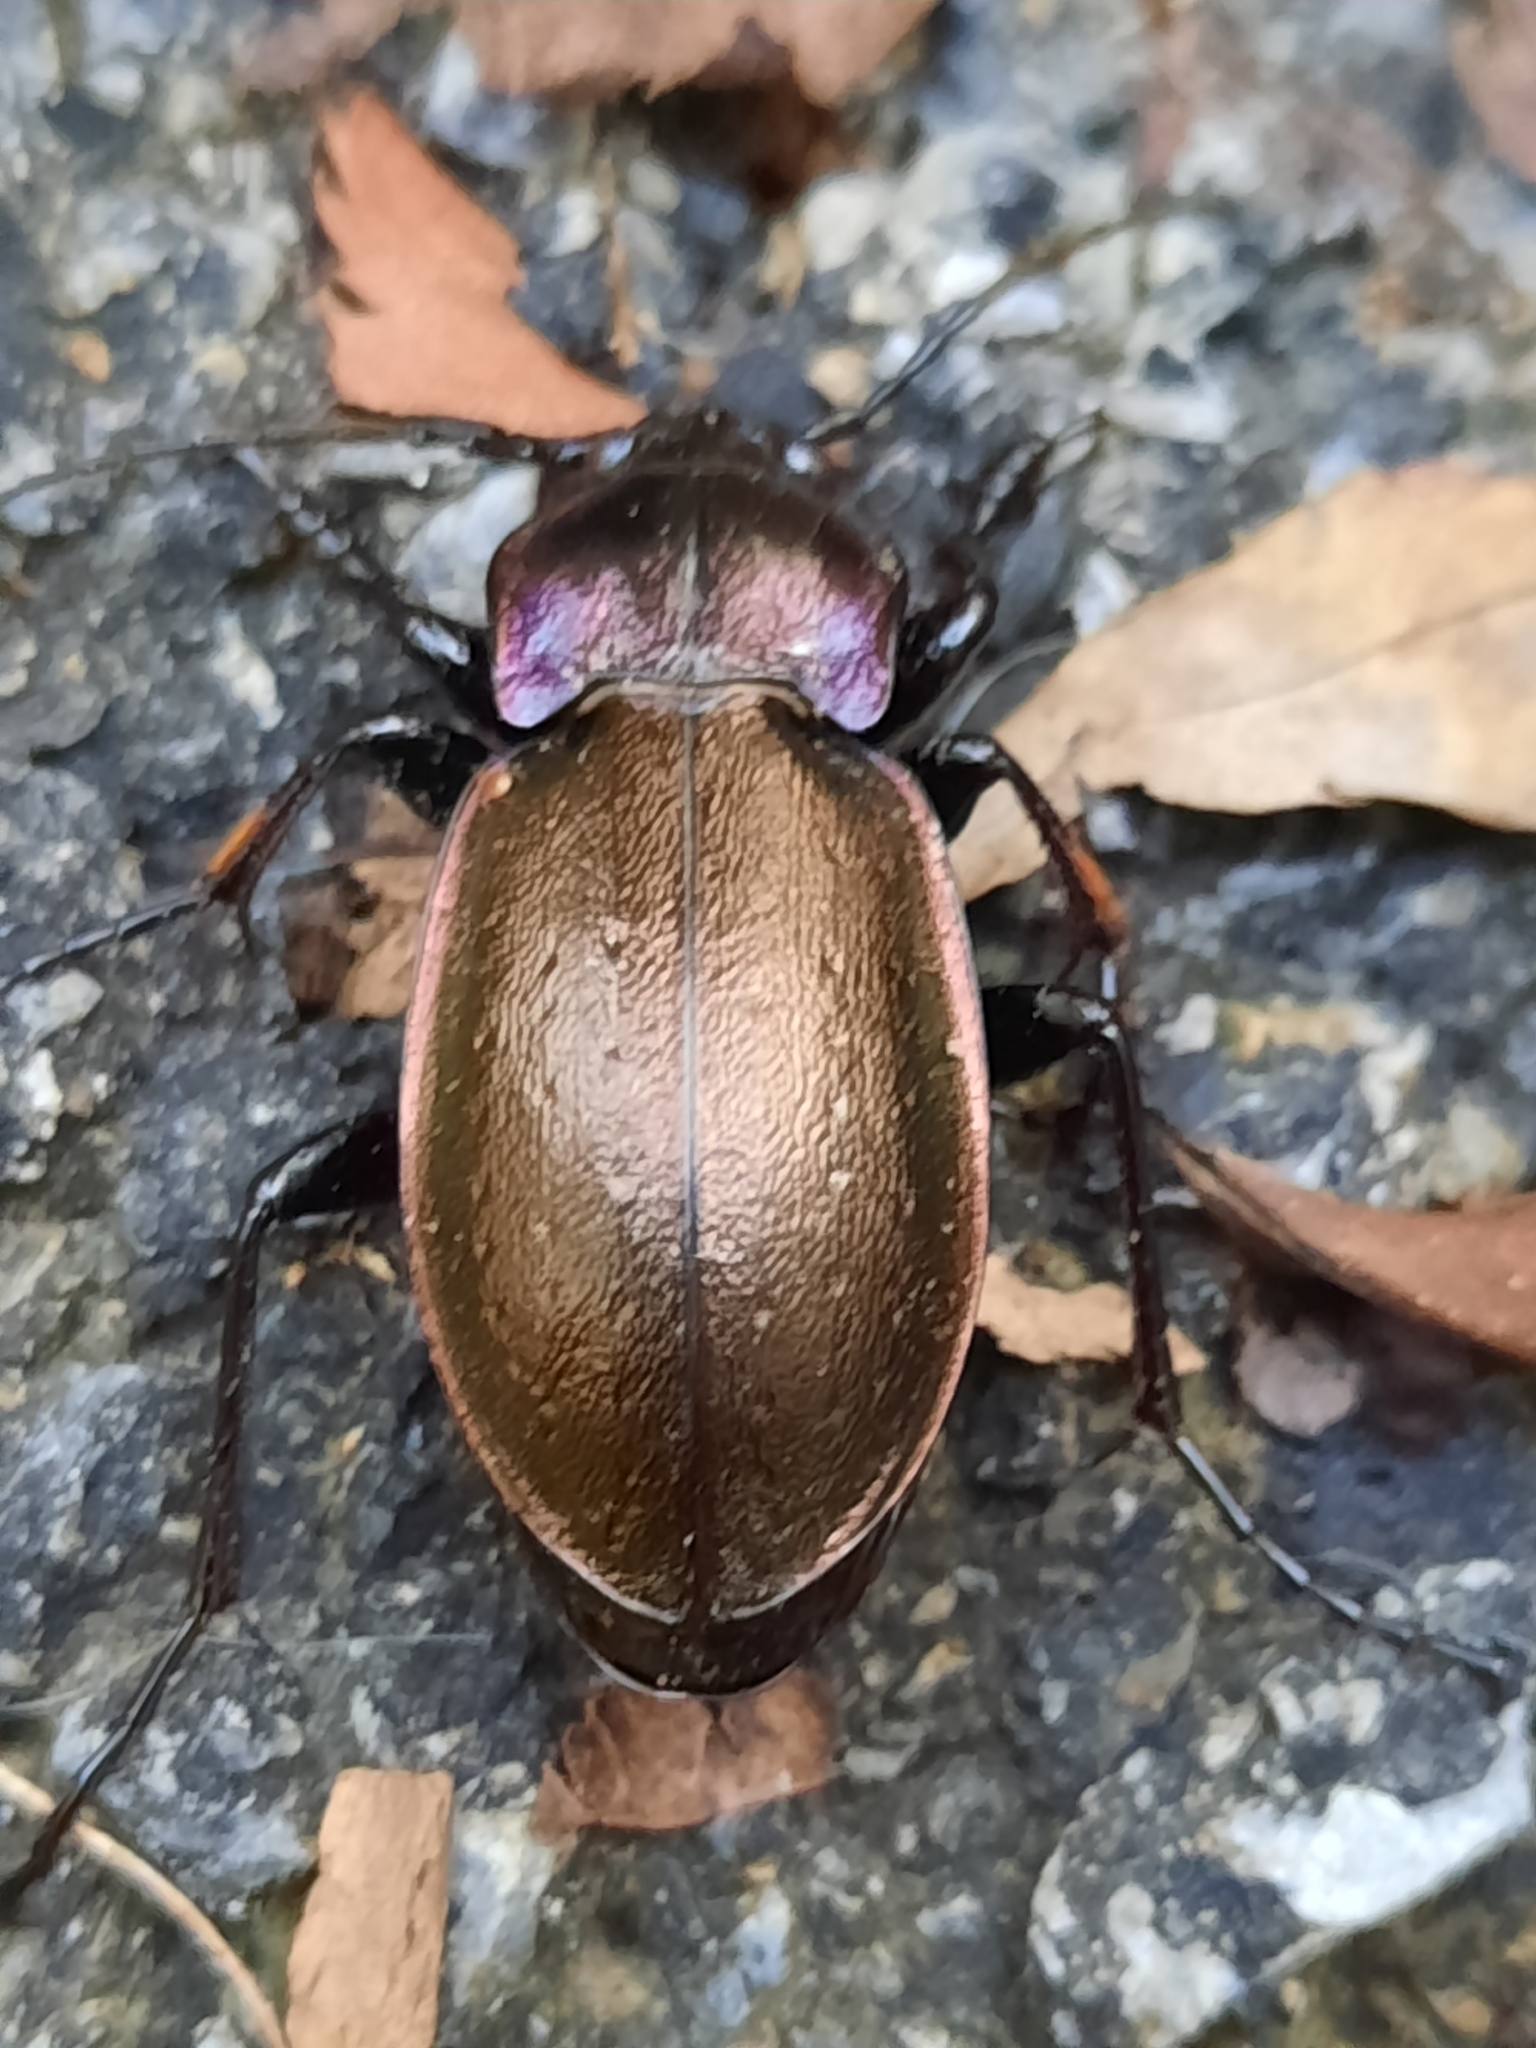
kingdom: Animalia
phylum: Arthropoda
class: Insecta
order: Coleoptera
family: Carabidae
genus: Carabus
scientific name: Carabus nemoralis
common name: European ground beetle
